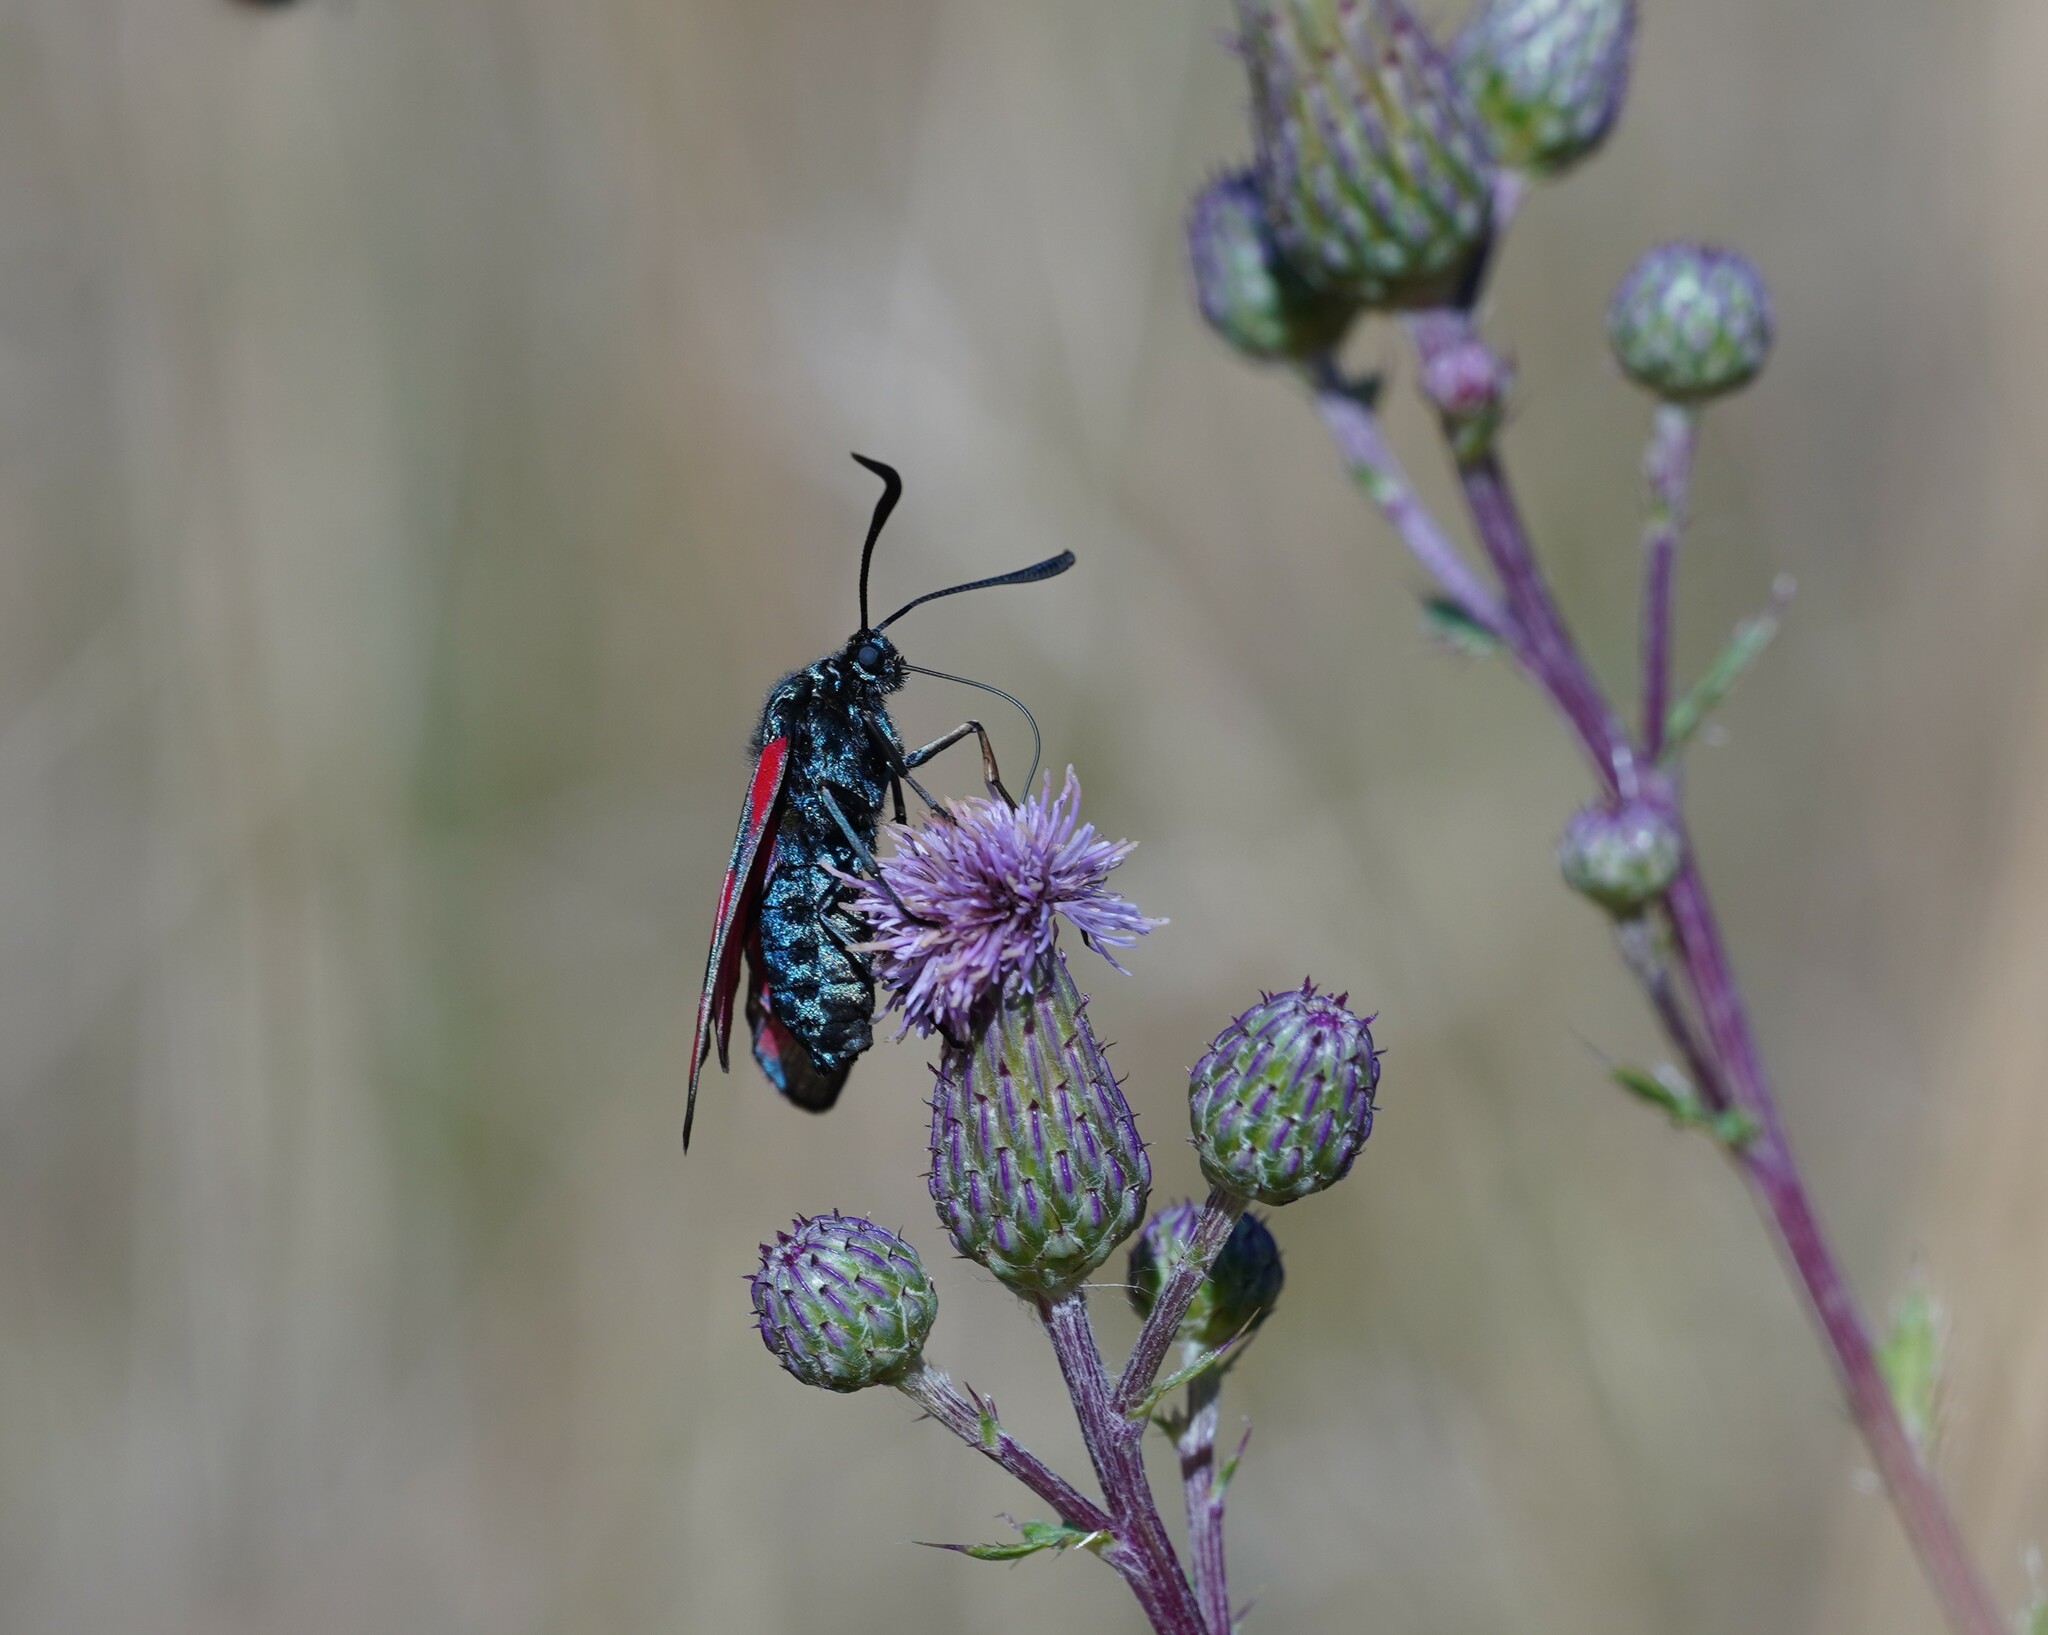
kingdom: Animalia
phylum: Arthropoda
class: Insecta
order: Lepidoptera
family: Zygaenidae
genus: Zygaena
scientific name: Zygaena filipendulae
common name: Six-spot burnet
